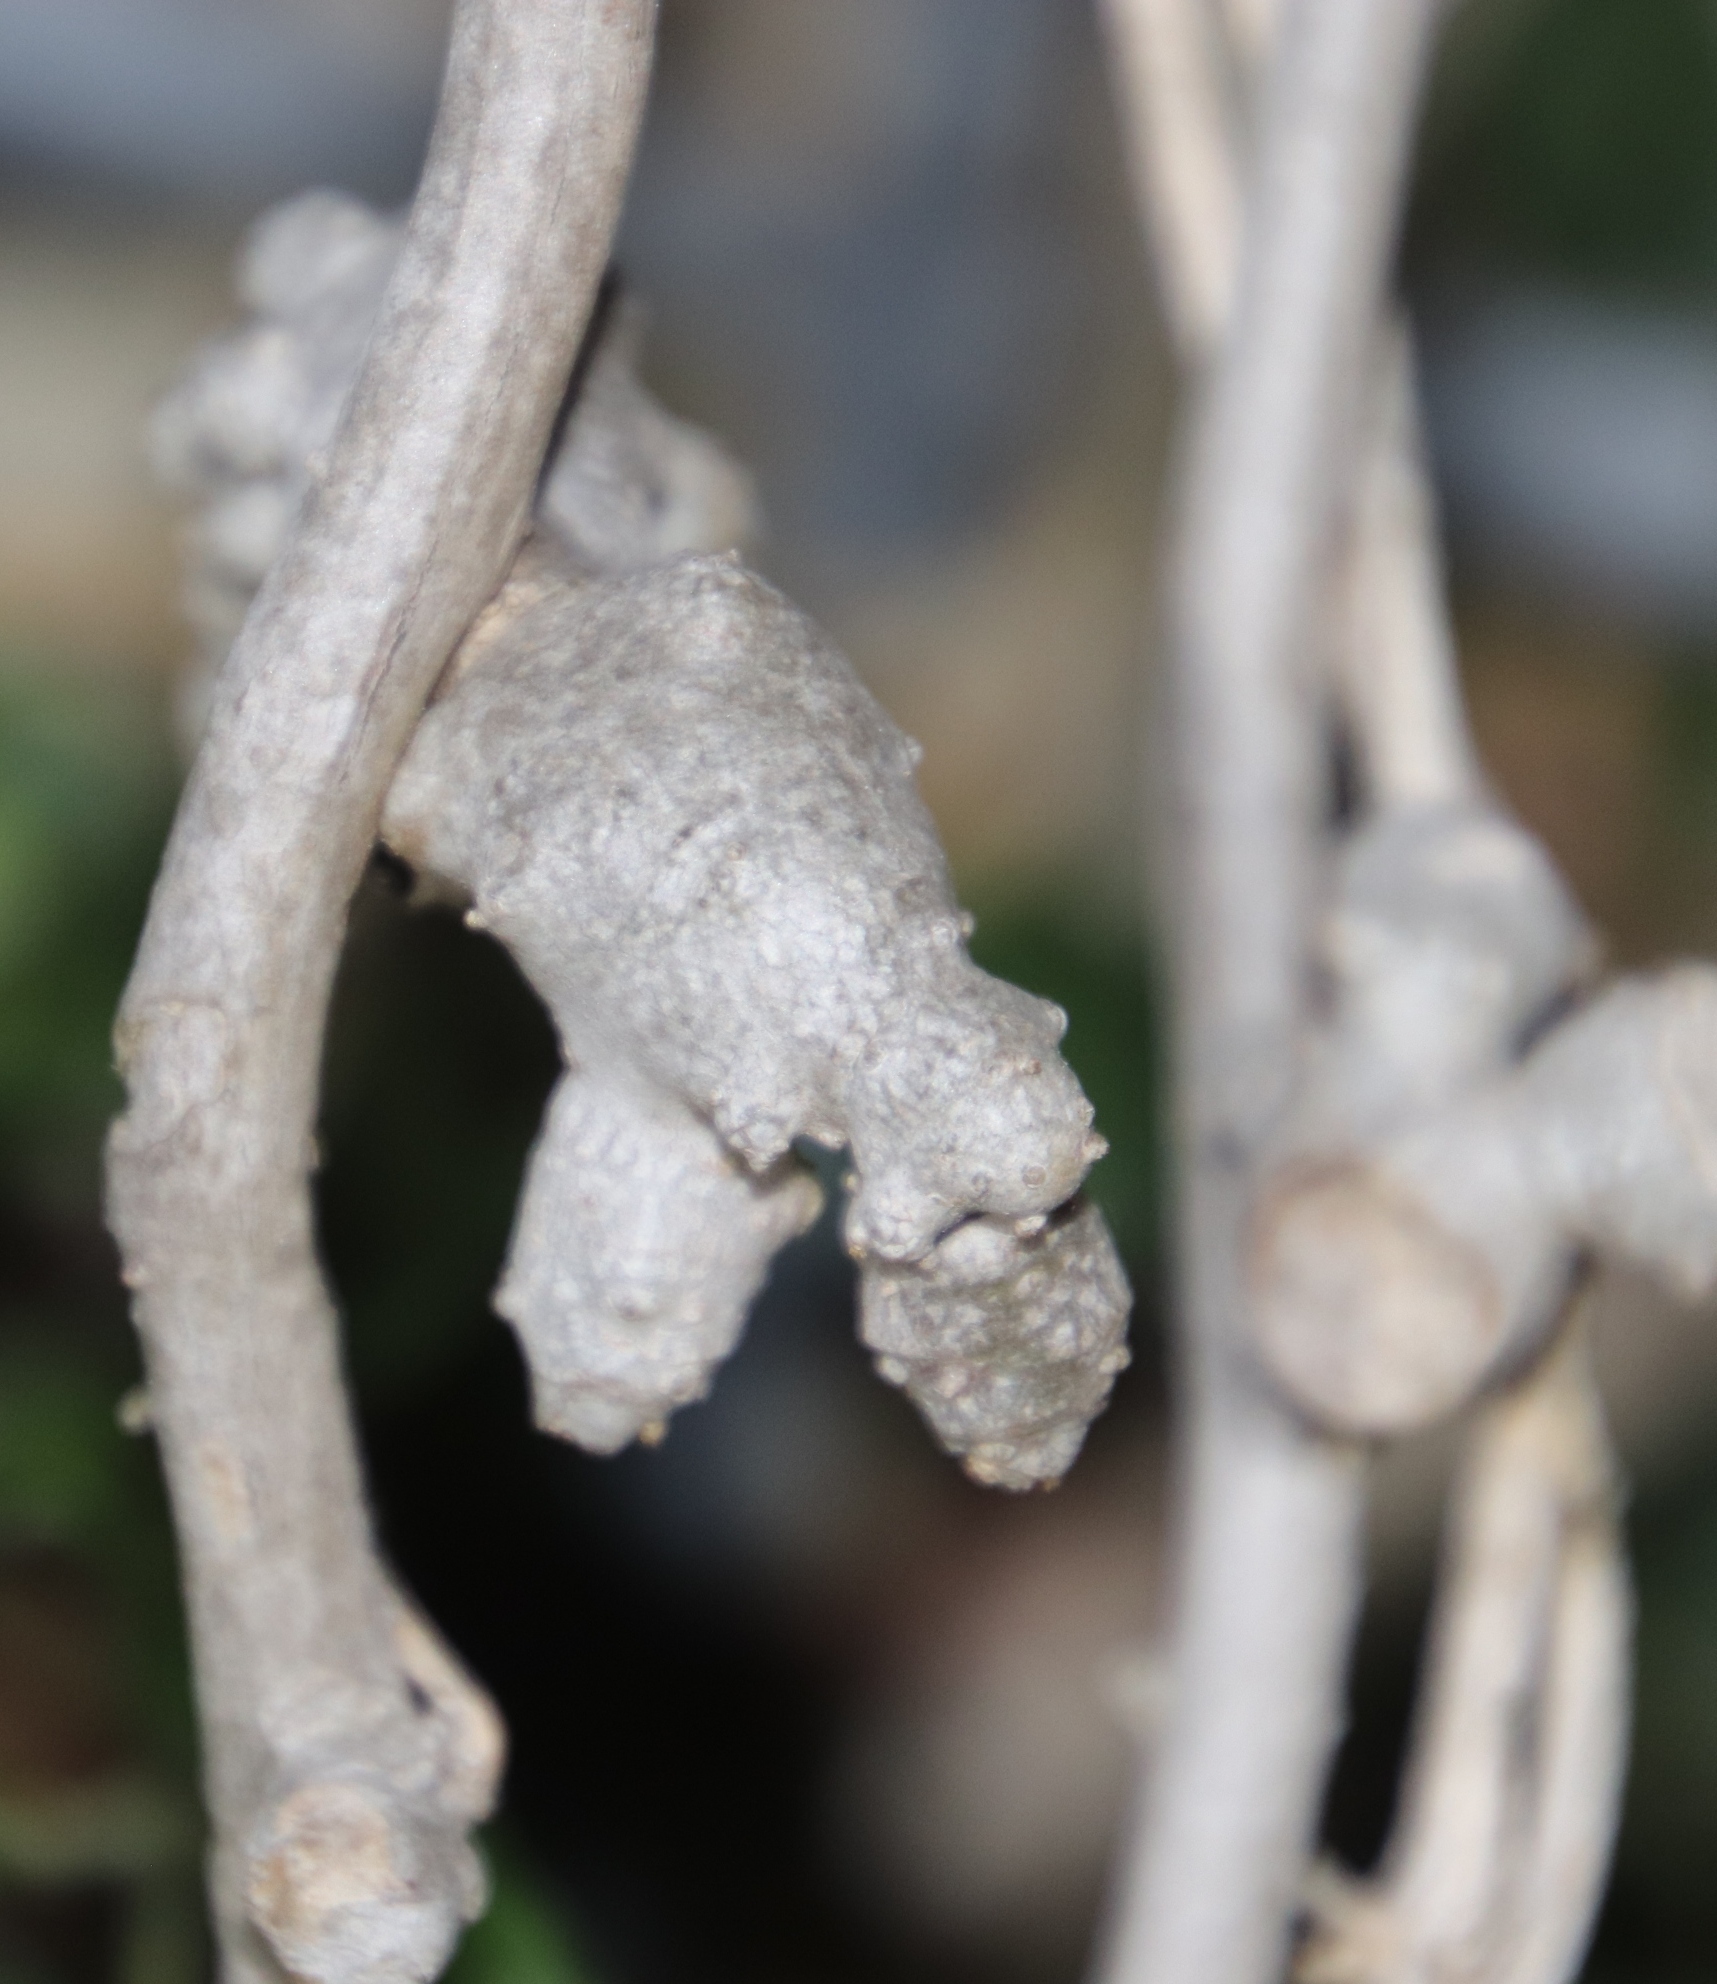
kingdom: Plantae
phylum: Tracheophyta
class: Magnoliopsida
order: Caryophyllales
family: Basellaceae
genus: Anredera
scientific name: Anredera cordifolia
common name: Heartleaf madeiravine
